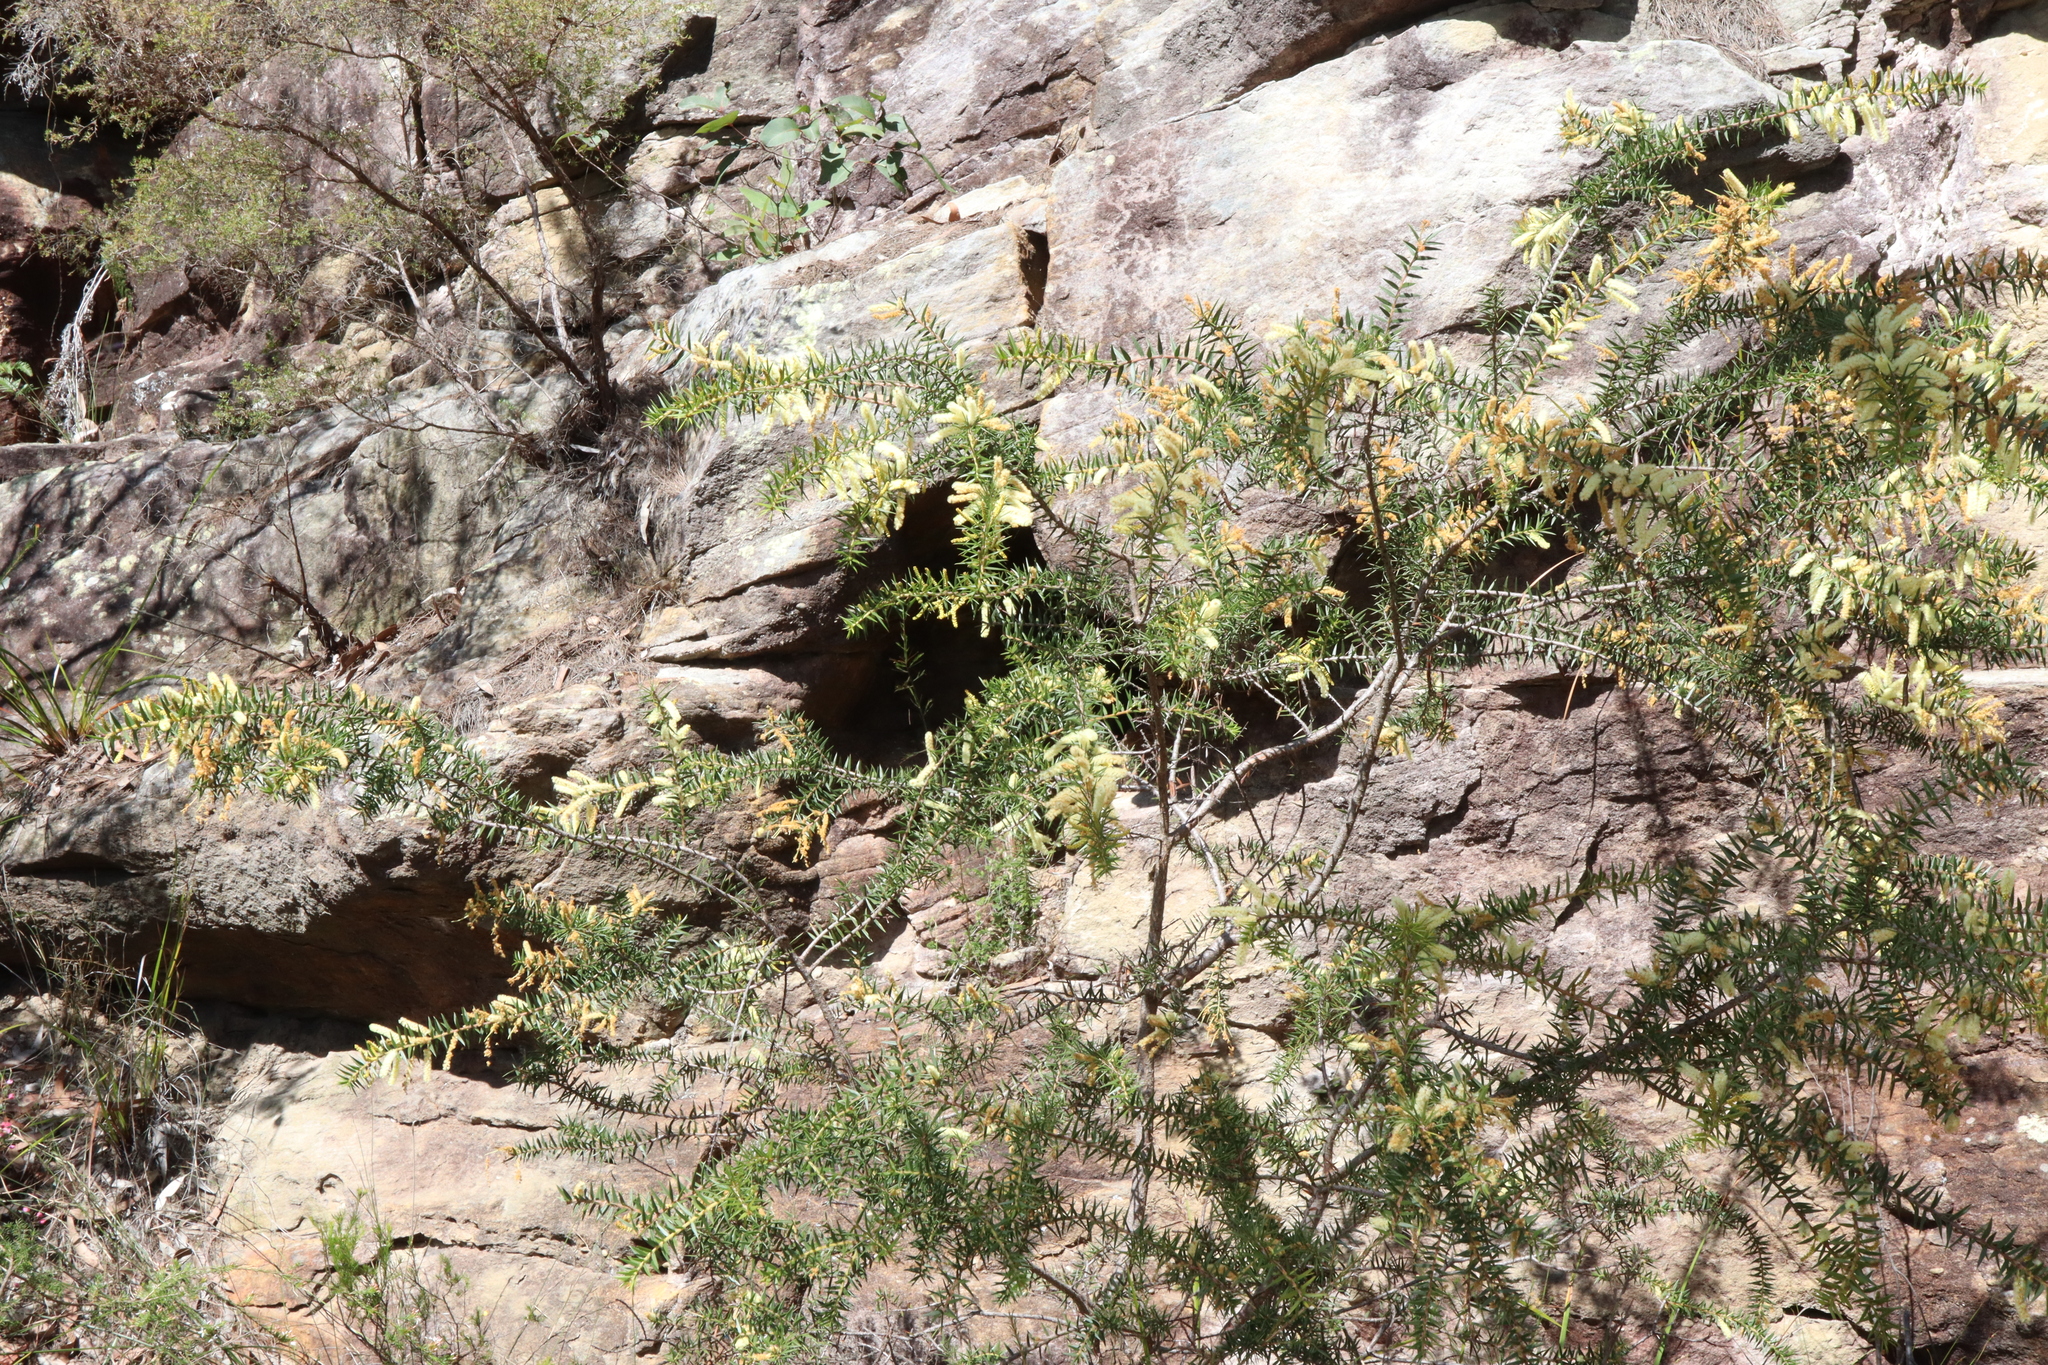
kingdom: Plantae
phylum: Tracheophyta
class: Magnoliopsida
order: Fabales
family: Fabaceae
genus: Acacia
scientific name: Acacia oxycedrus
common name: Spike wattle
